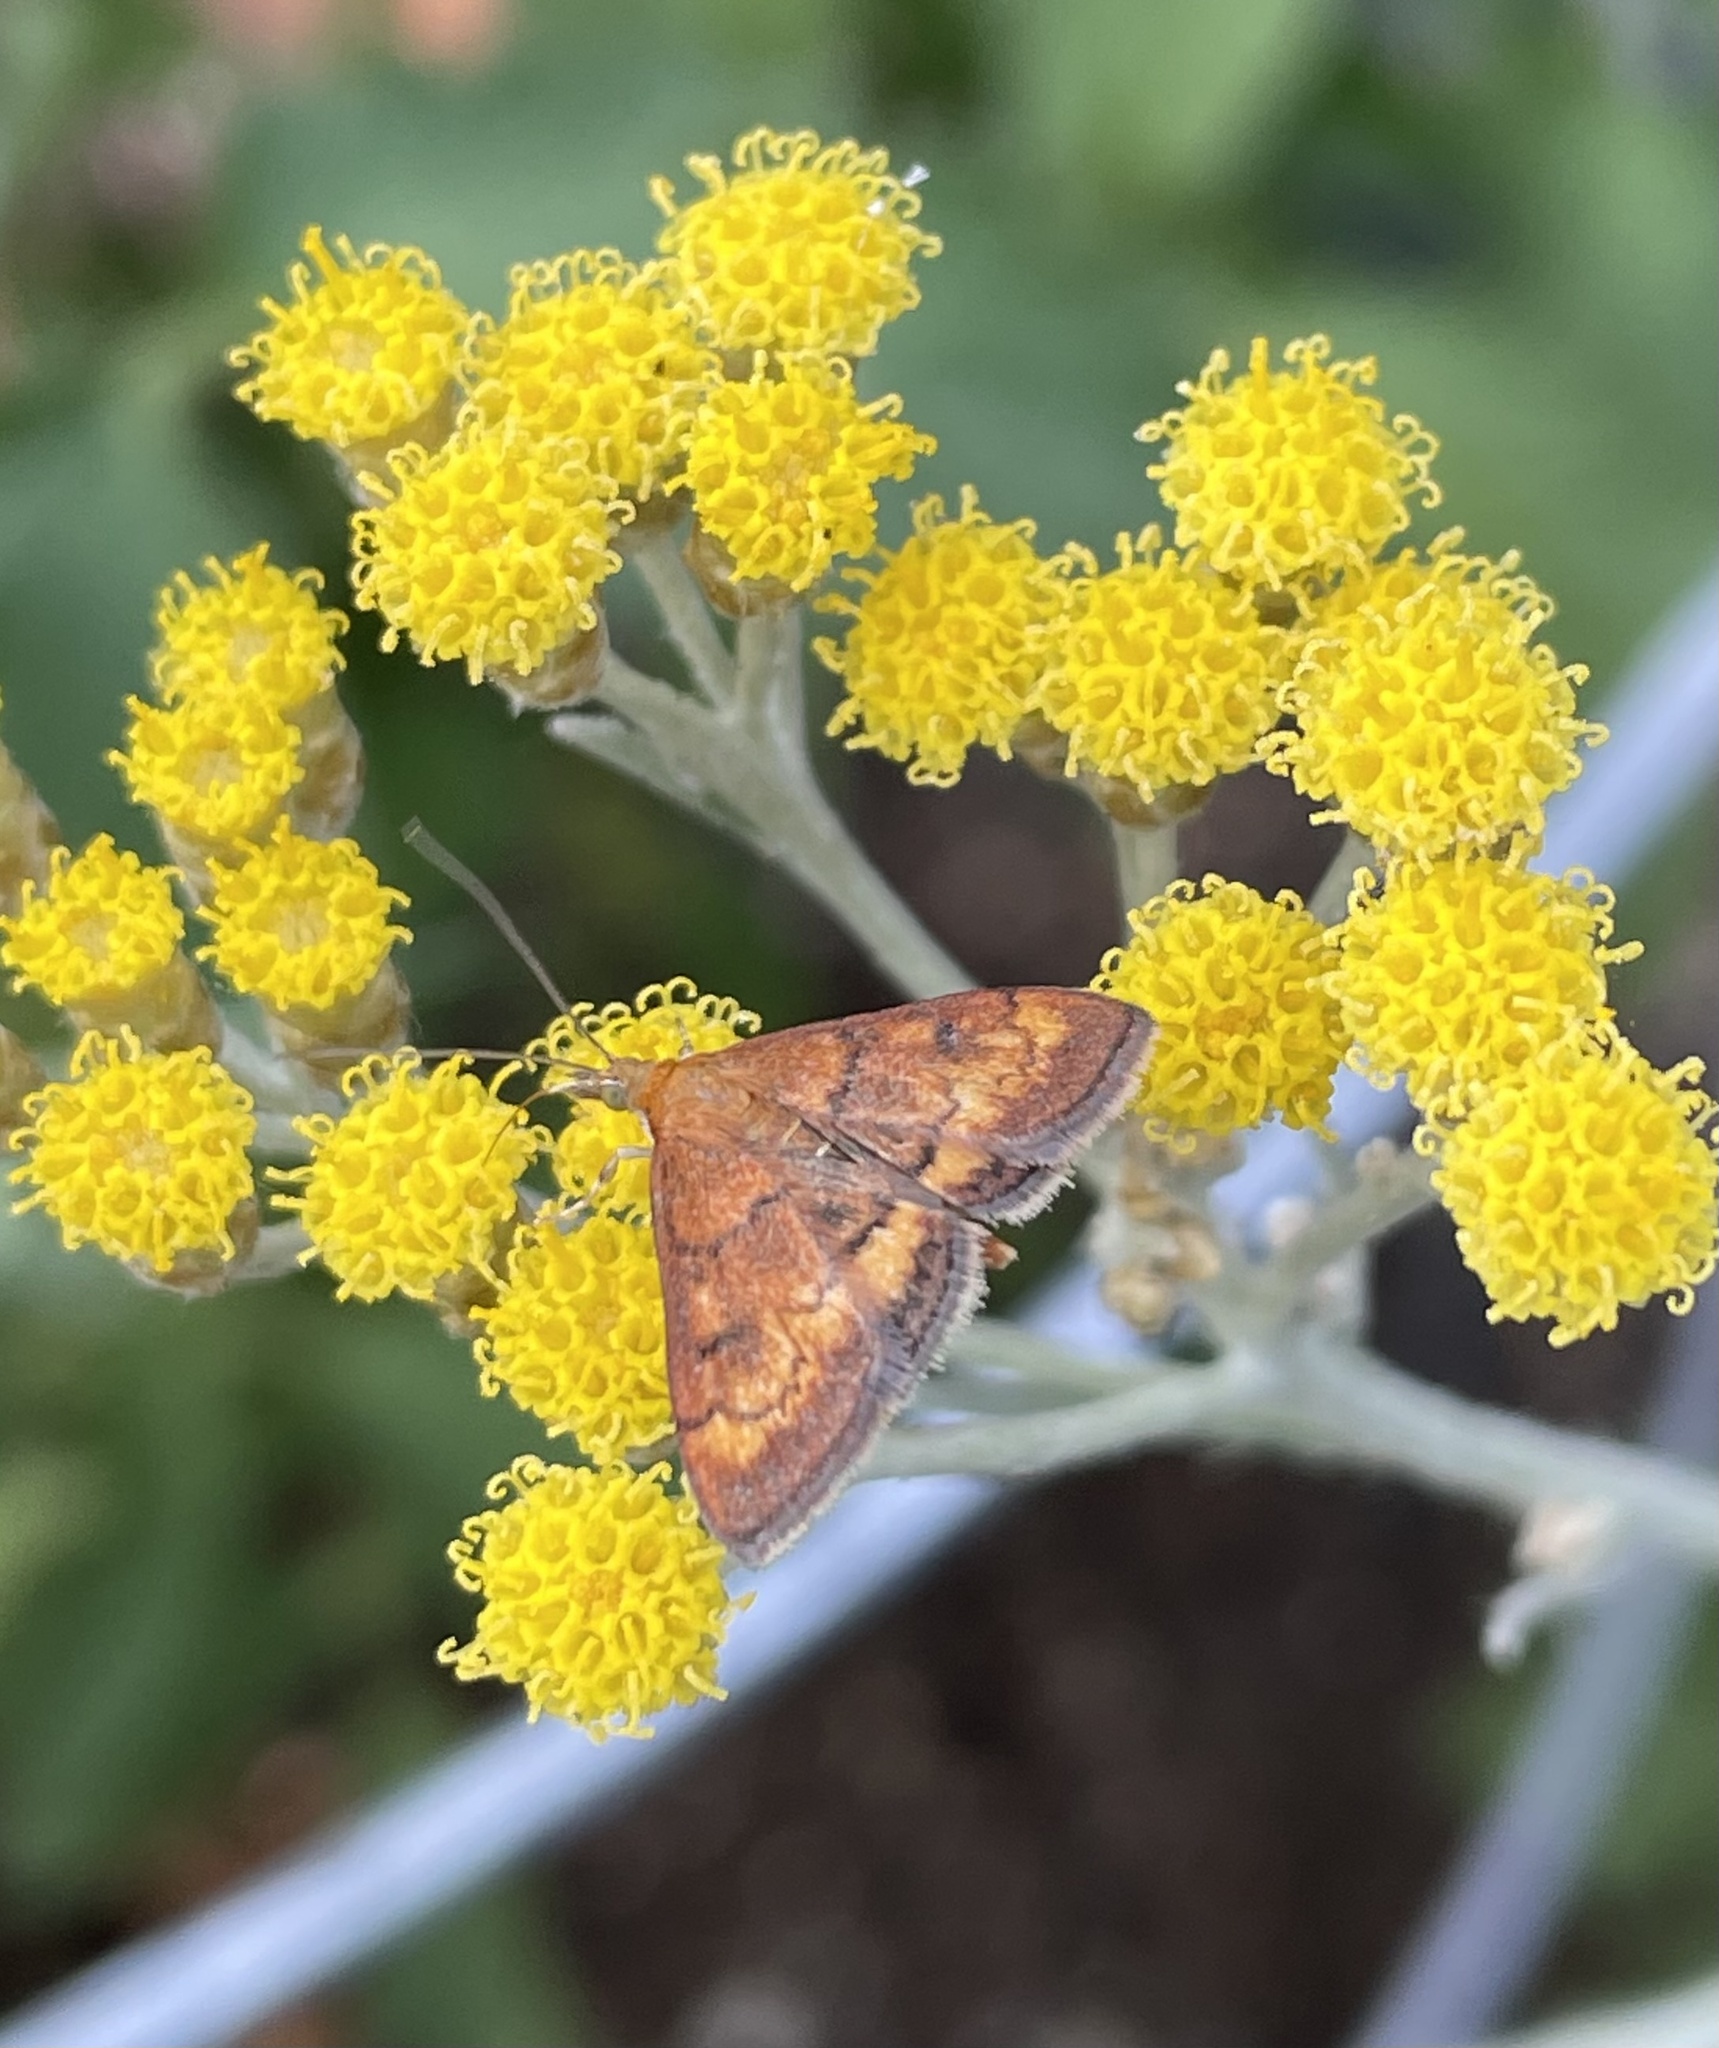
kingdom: Animalia
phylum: Arthropoda
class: Insecta
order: Lepidoptera
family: Crambidae
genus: Pyrausta
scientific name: Pyrausta californicalis
